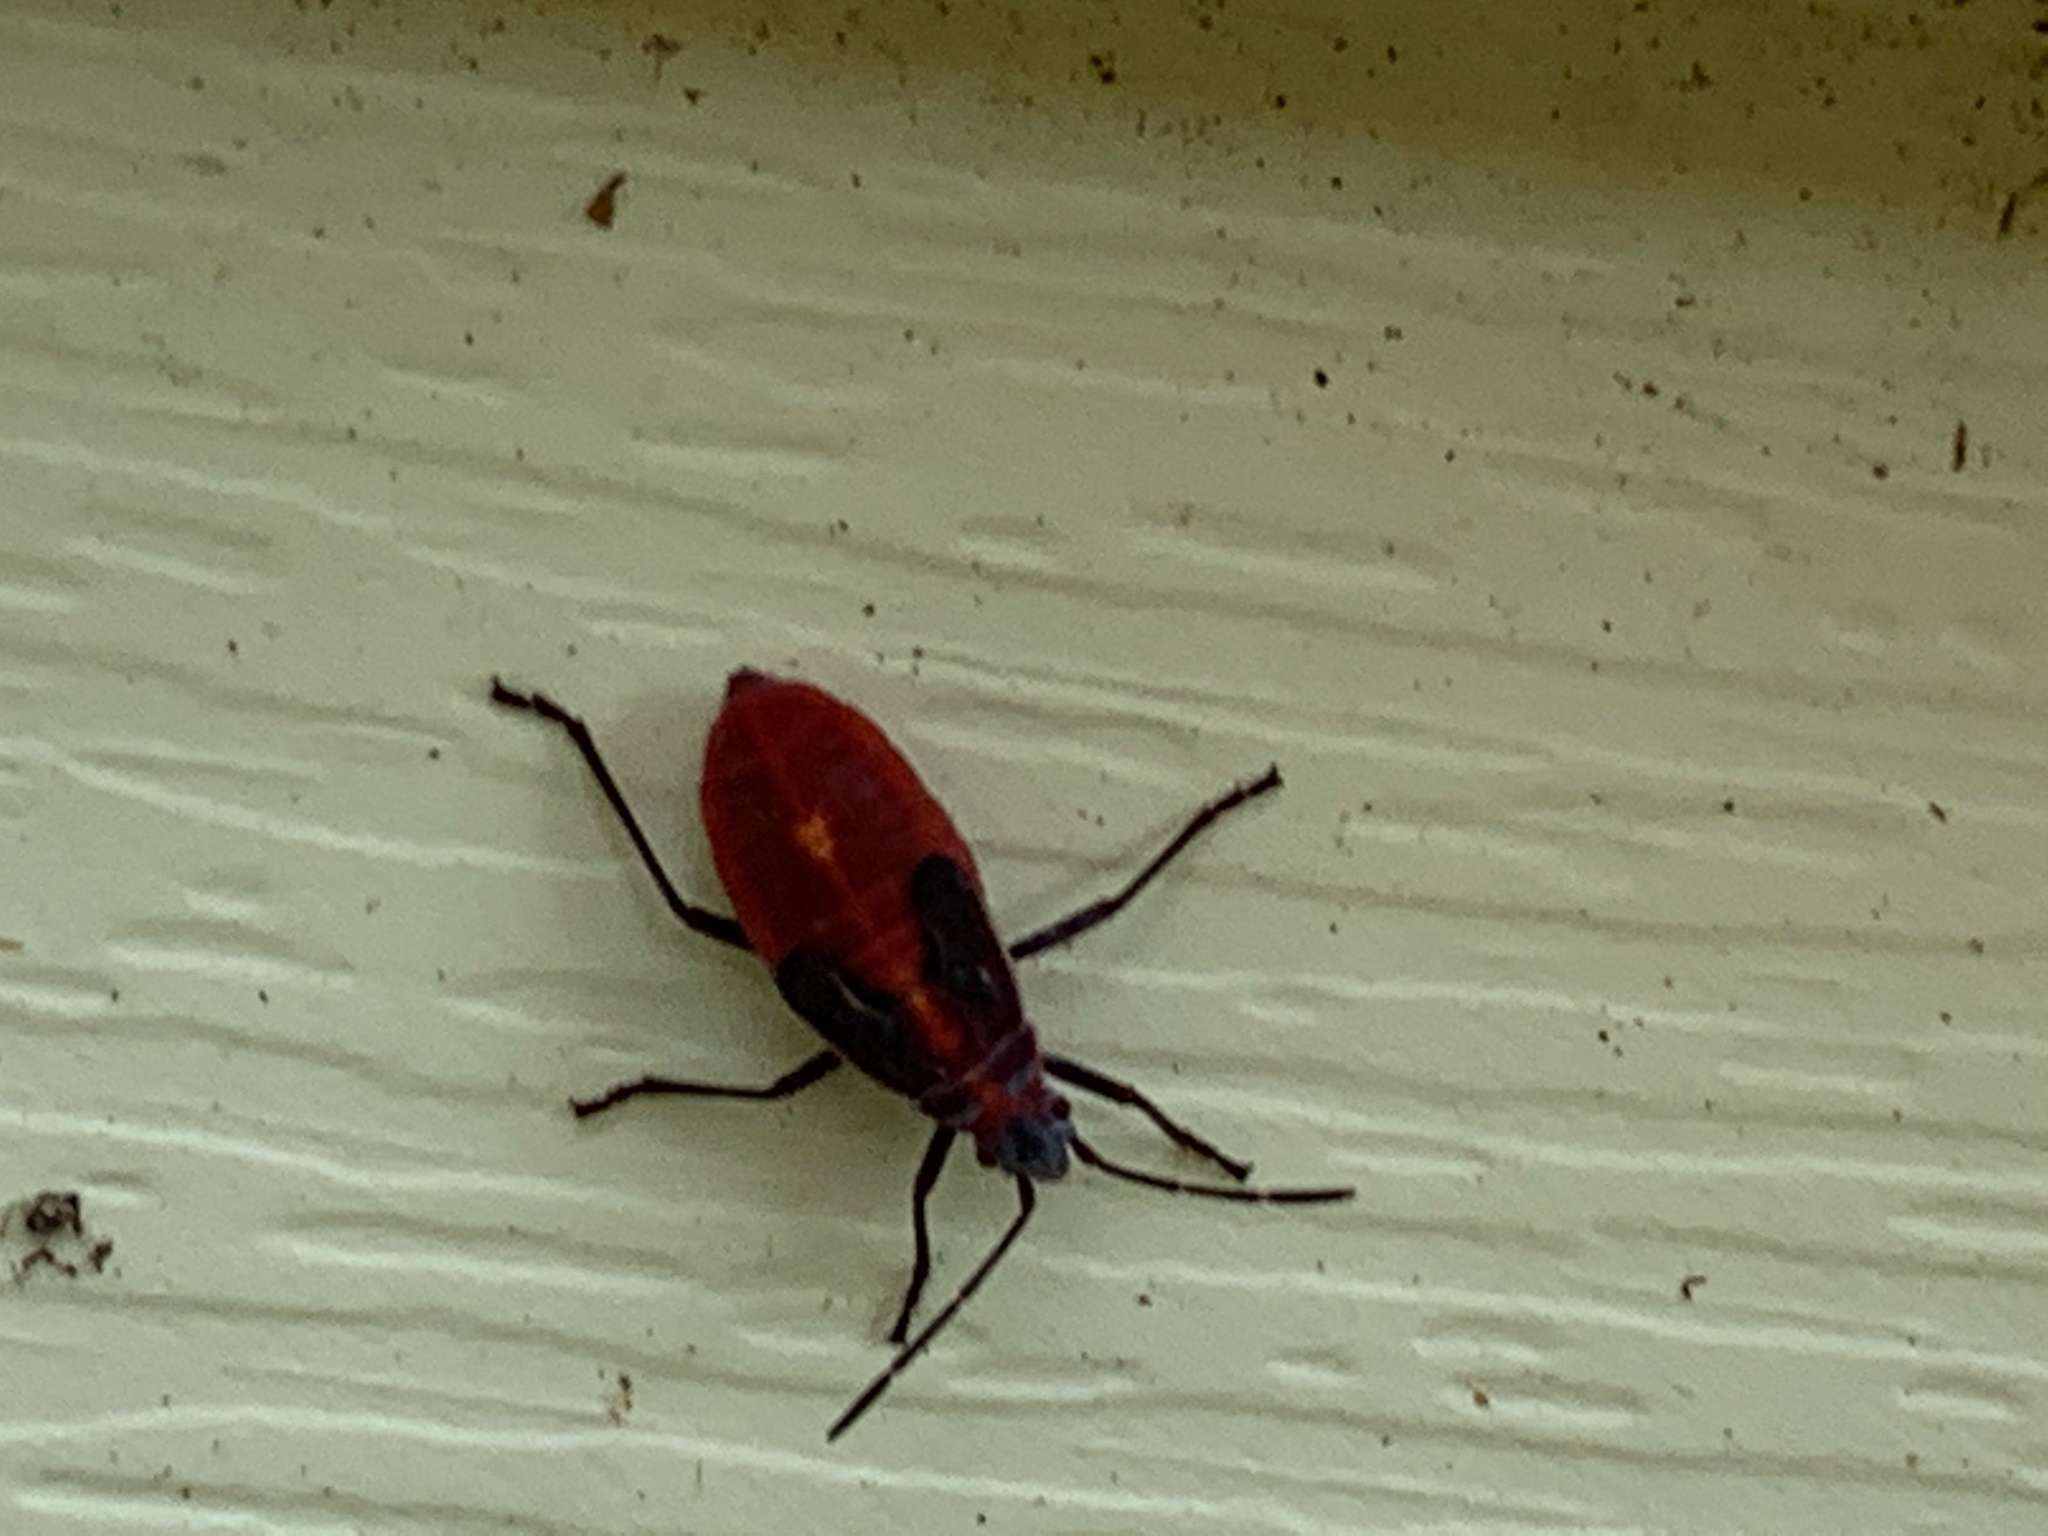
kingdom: Animalia
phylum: Arthropoda
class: Insecta
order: Hemiptera
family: Rhopalidae
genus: Boisea
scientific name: Boisea trivittata
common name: Boxelder bug
